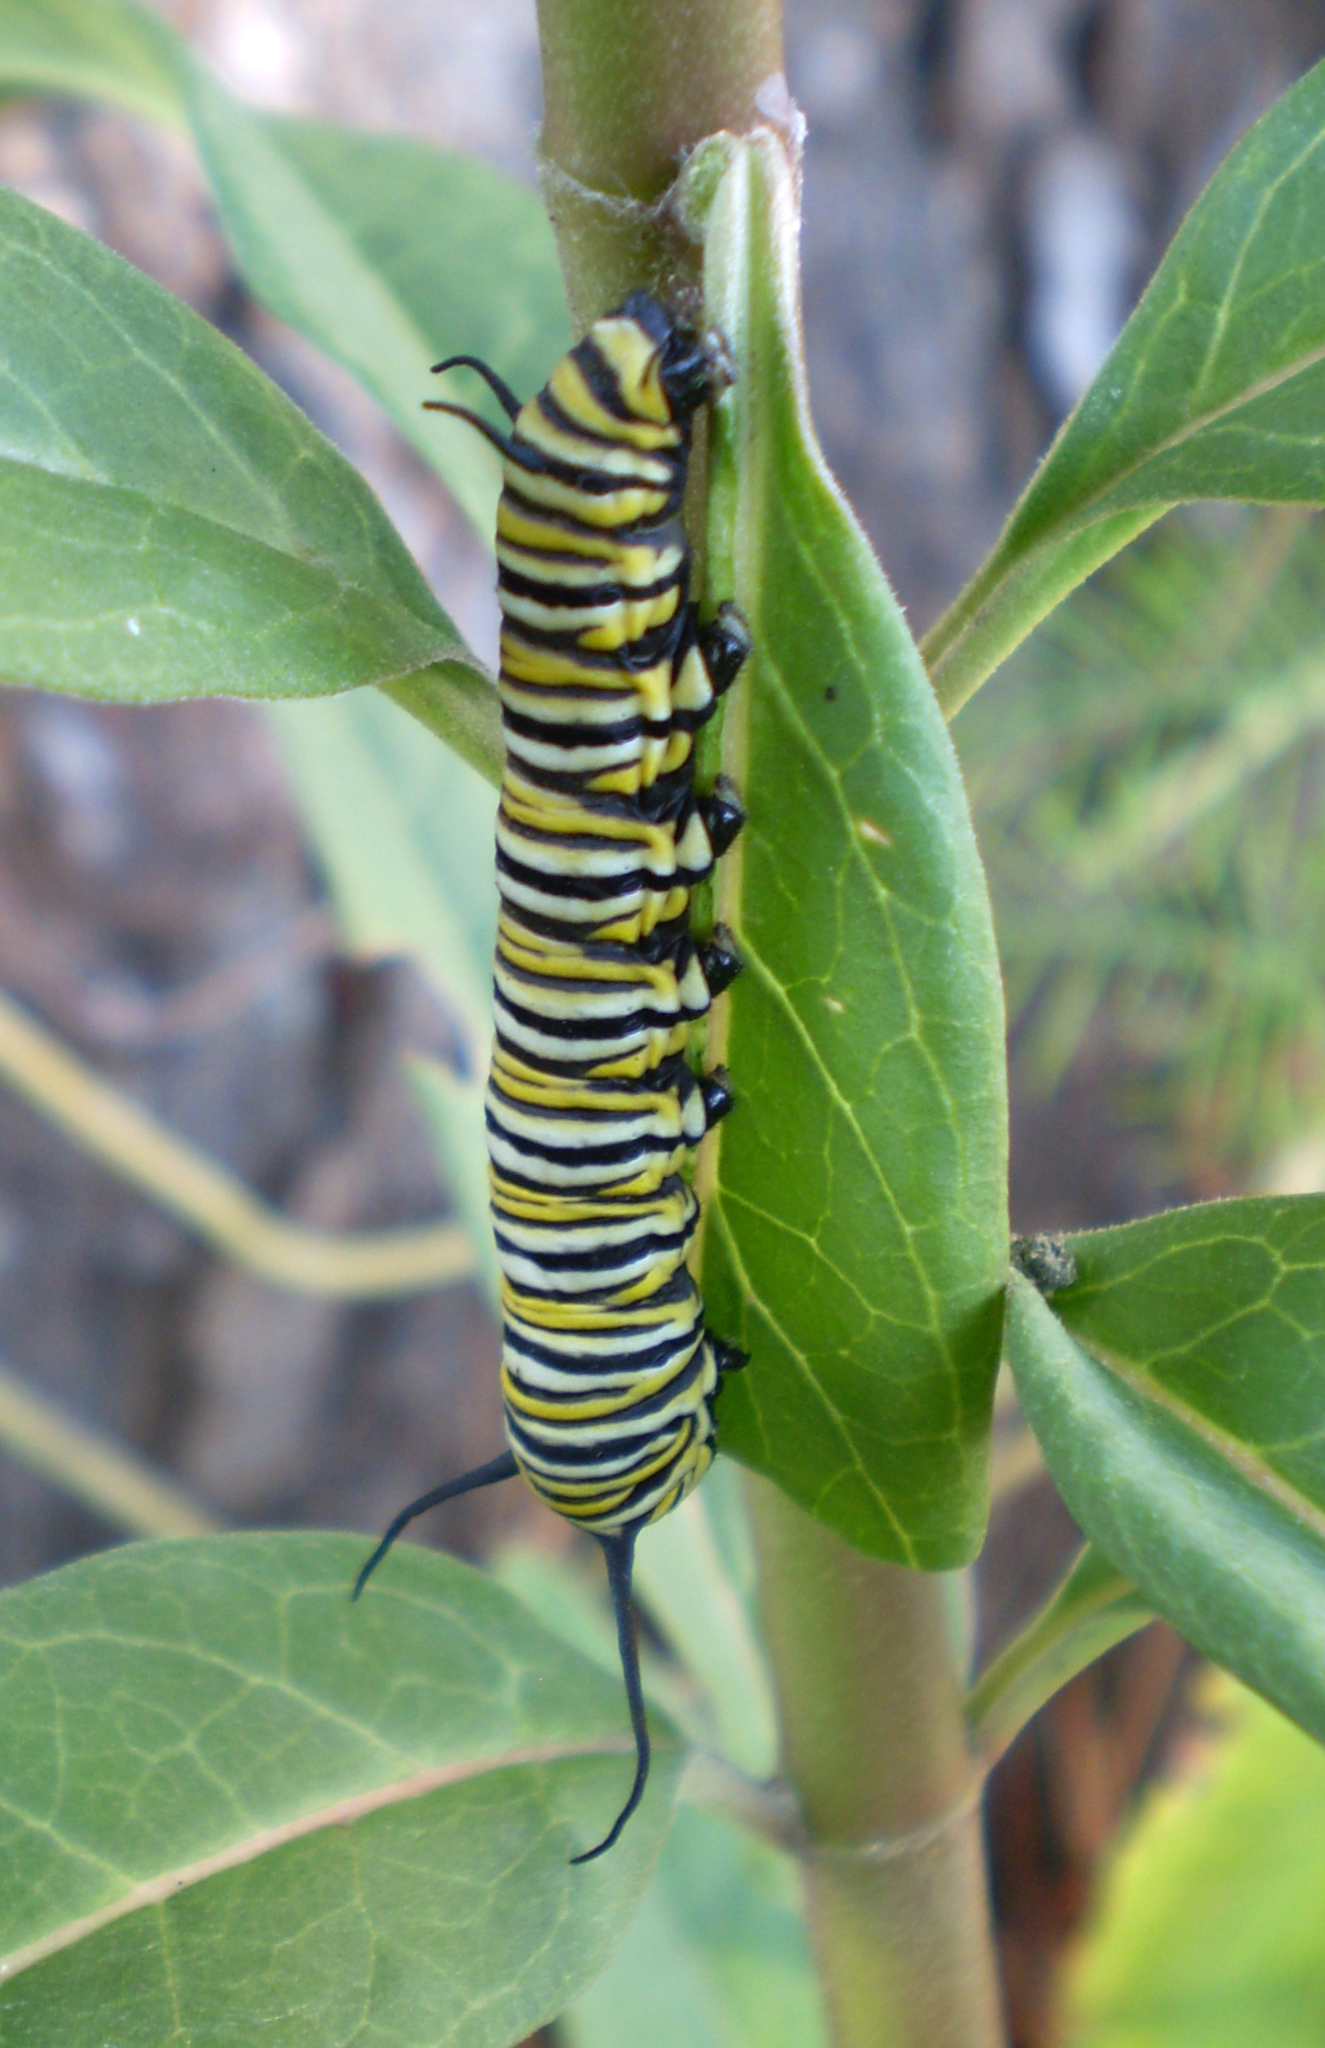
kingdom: Animalia
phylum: Arthropoda
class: Insecta
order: Lepidoptera
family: Nymphalidae
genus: Danaus
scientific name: Danaus plexippus
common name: Monarch
